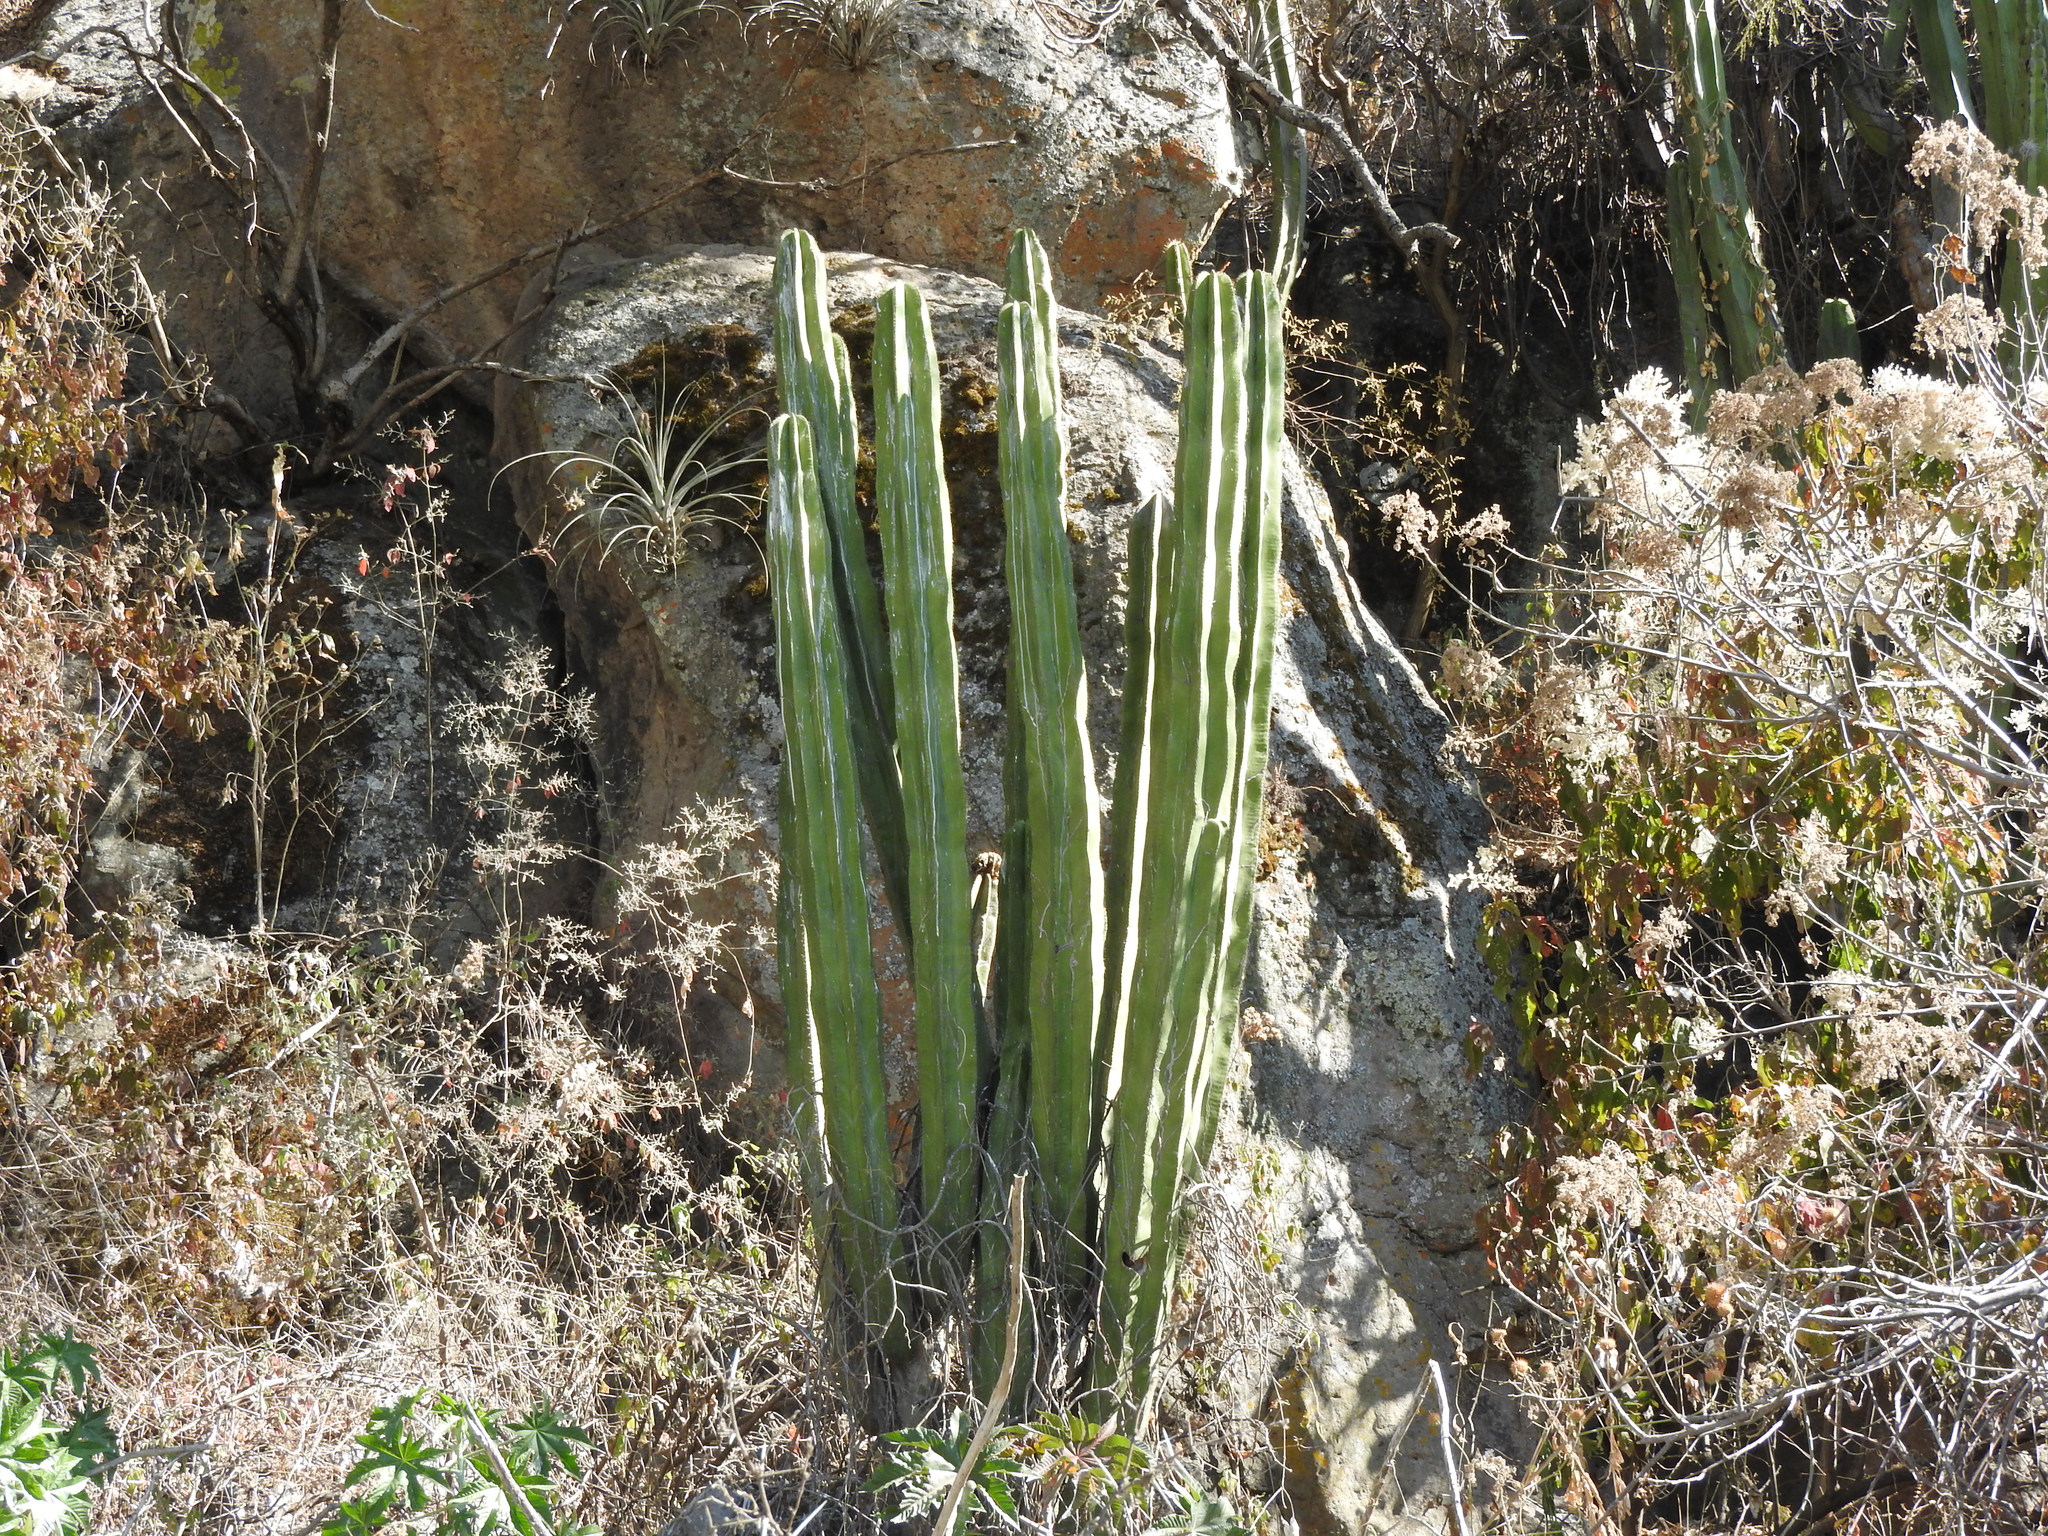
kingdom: Plantae
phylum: Tracheophyta
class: Magnoliopsida
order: Caryophyllales
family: Cactaceae
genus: Stenocereus
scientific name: Stenocereus dumortieri
